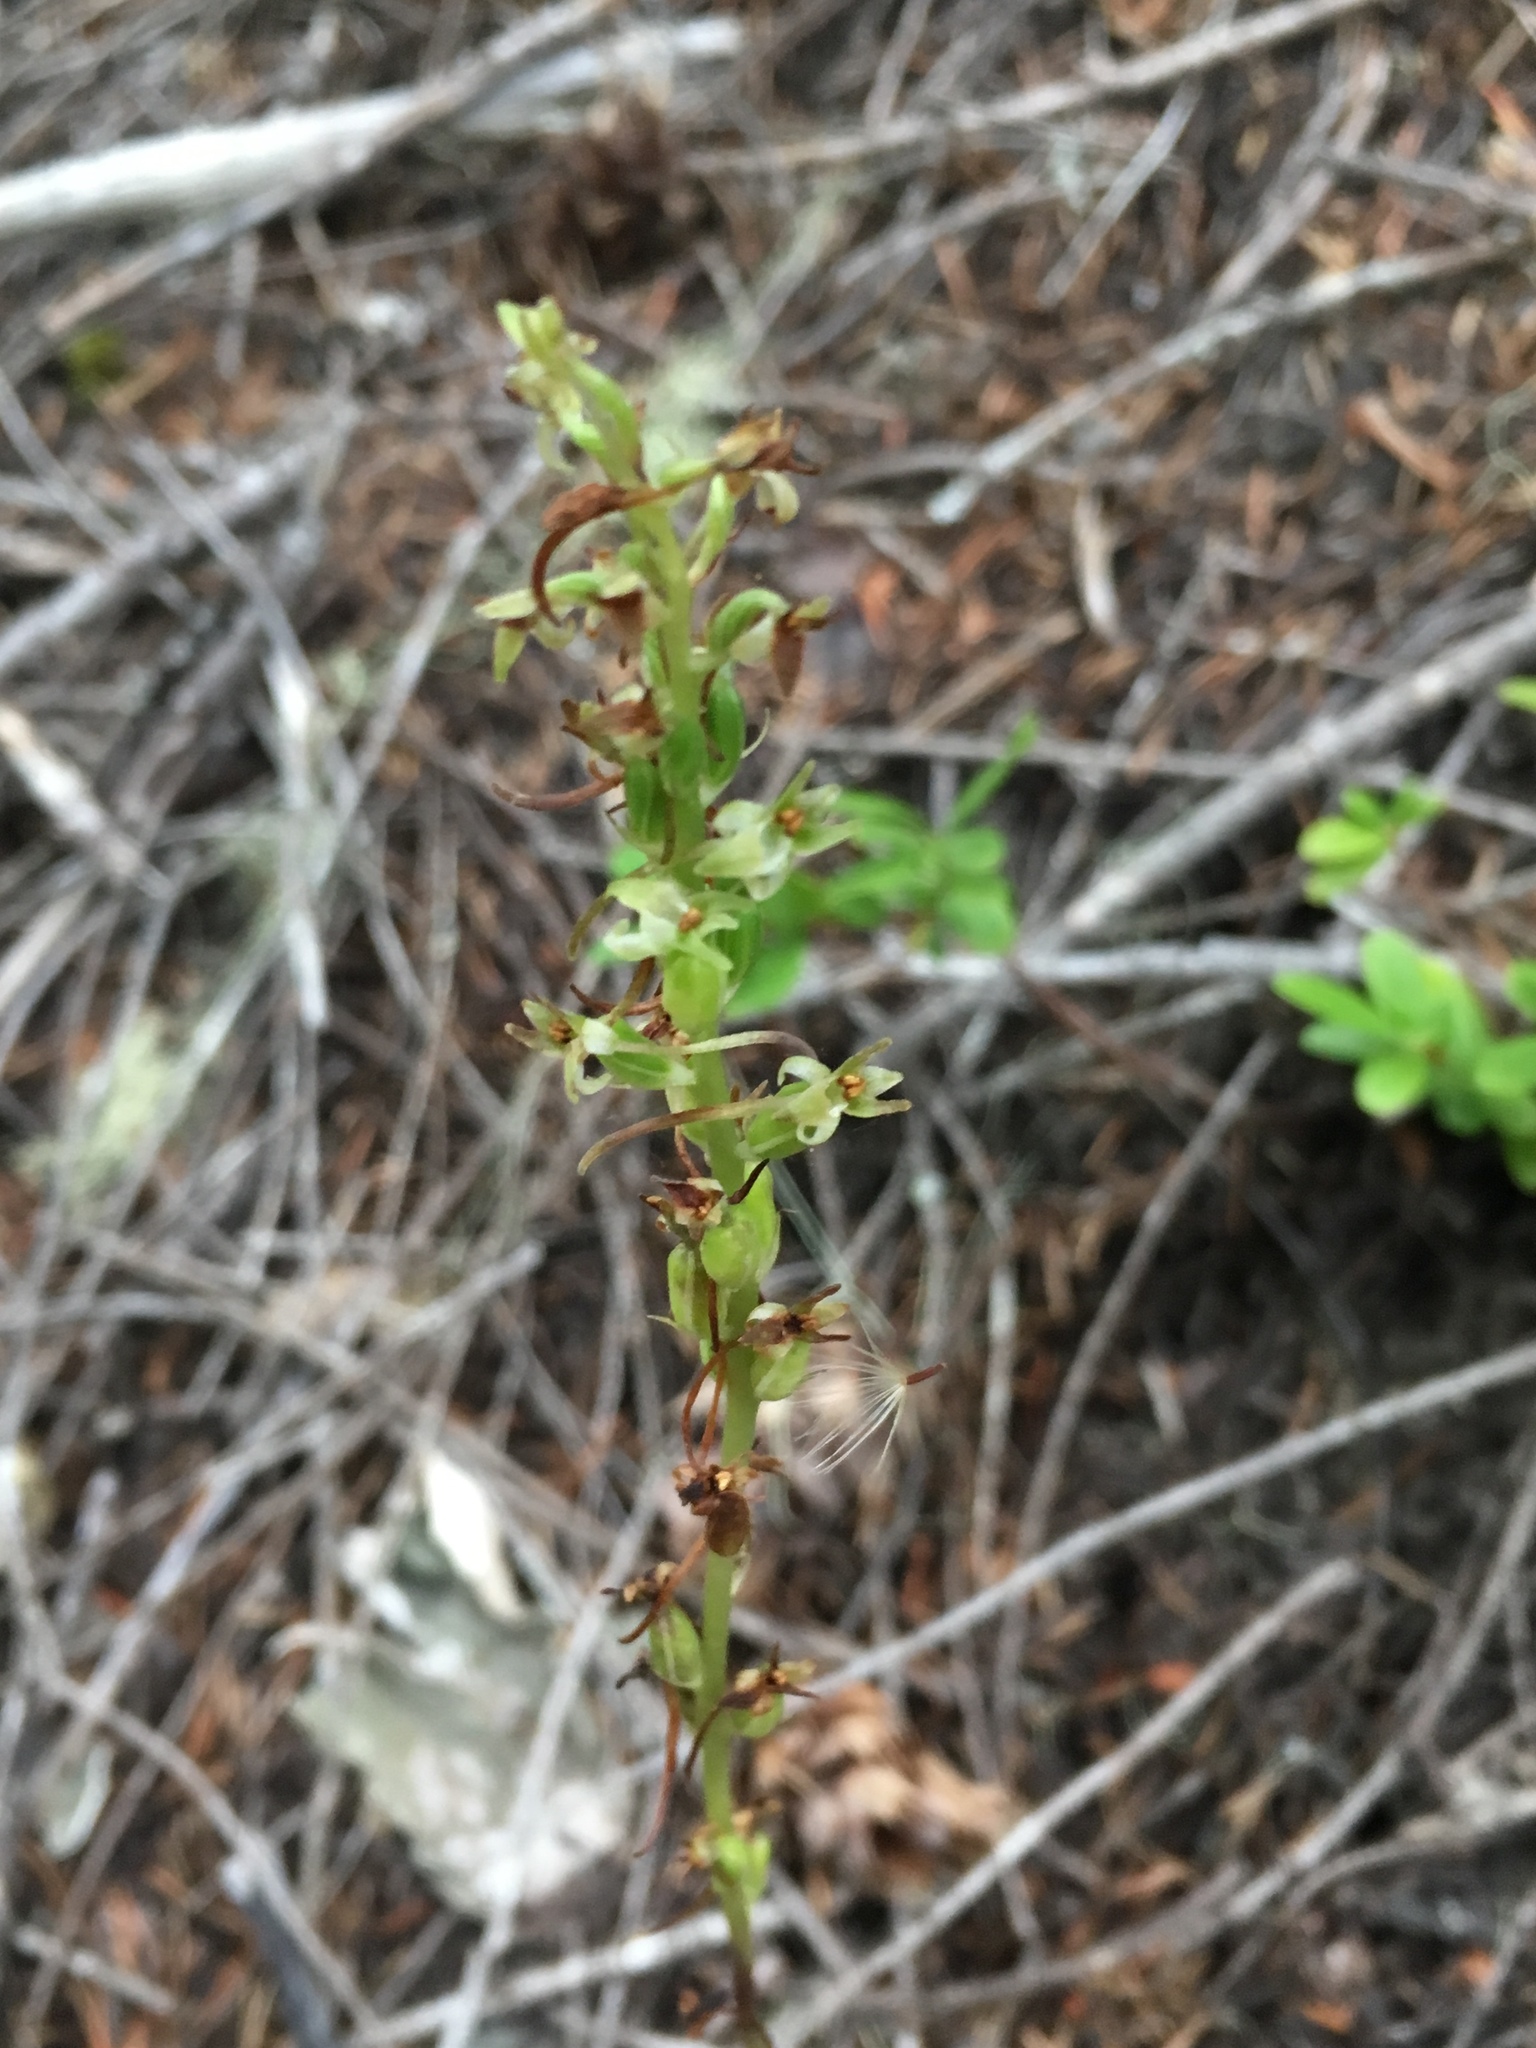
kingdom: Plantae
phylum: Tracheophyta
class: Liliopsida
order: Asparagales
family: Orchidaceae
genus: Platanthera
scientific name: Platanthera elongata
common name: Dense-flowered rein orchid
